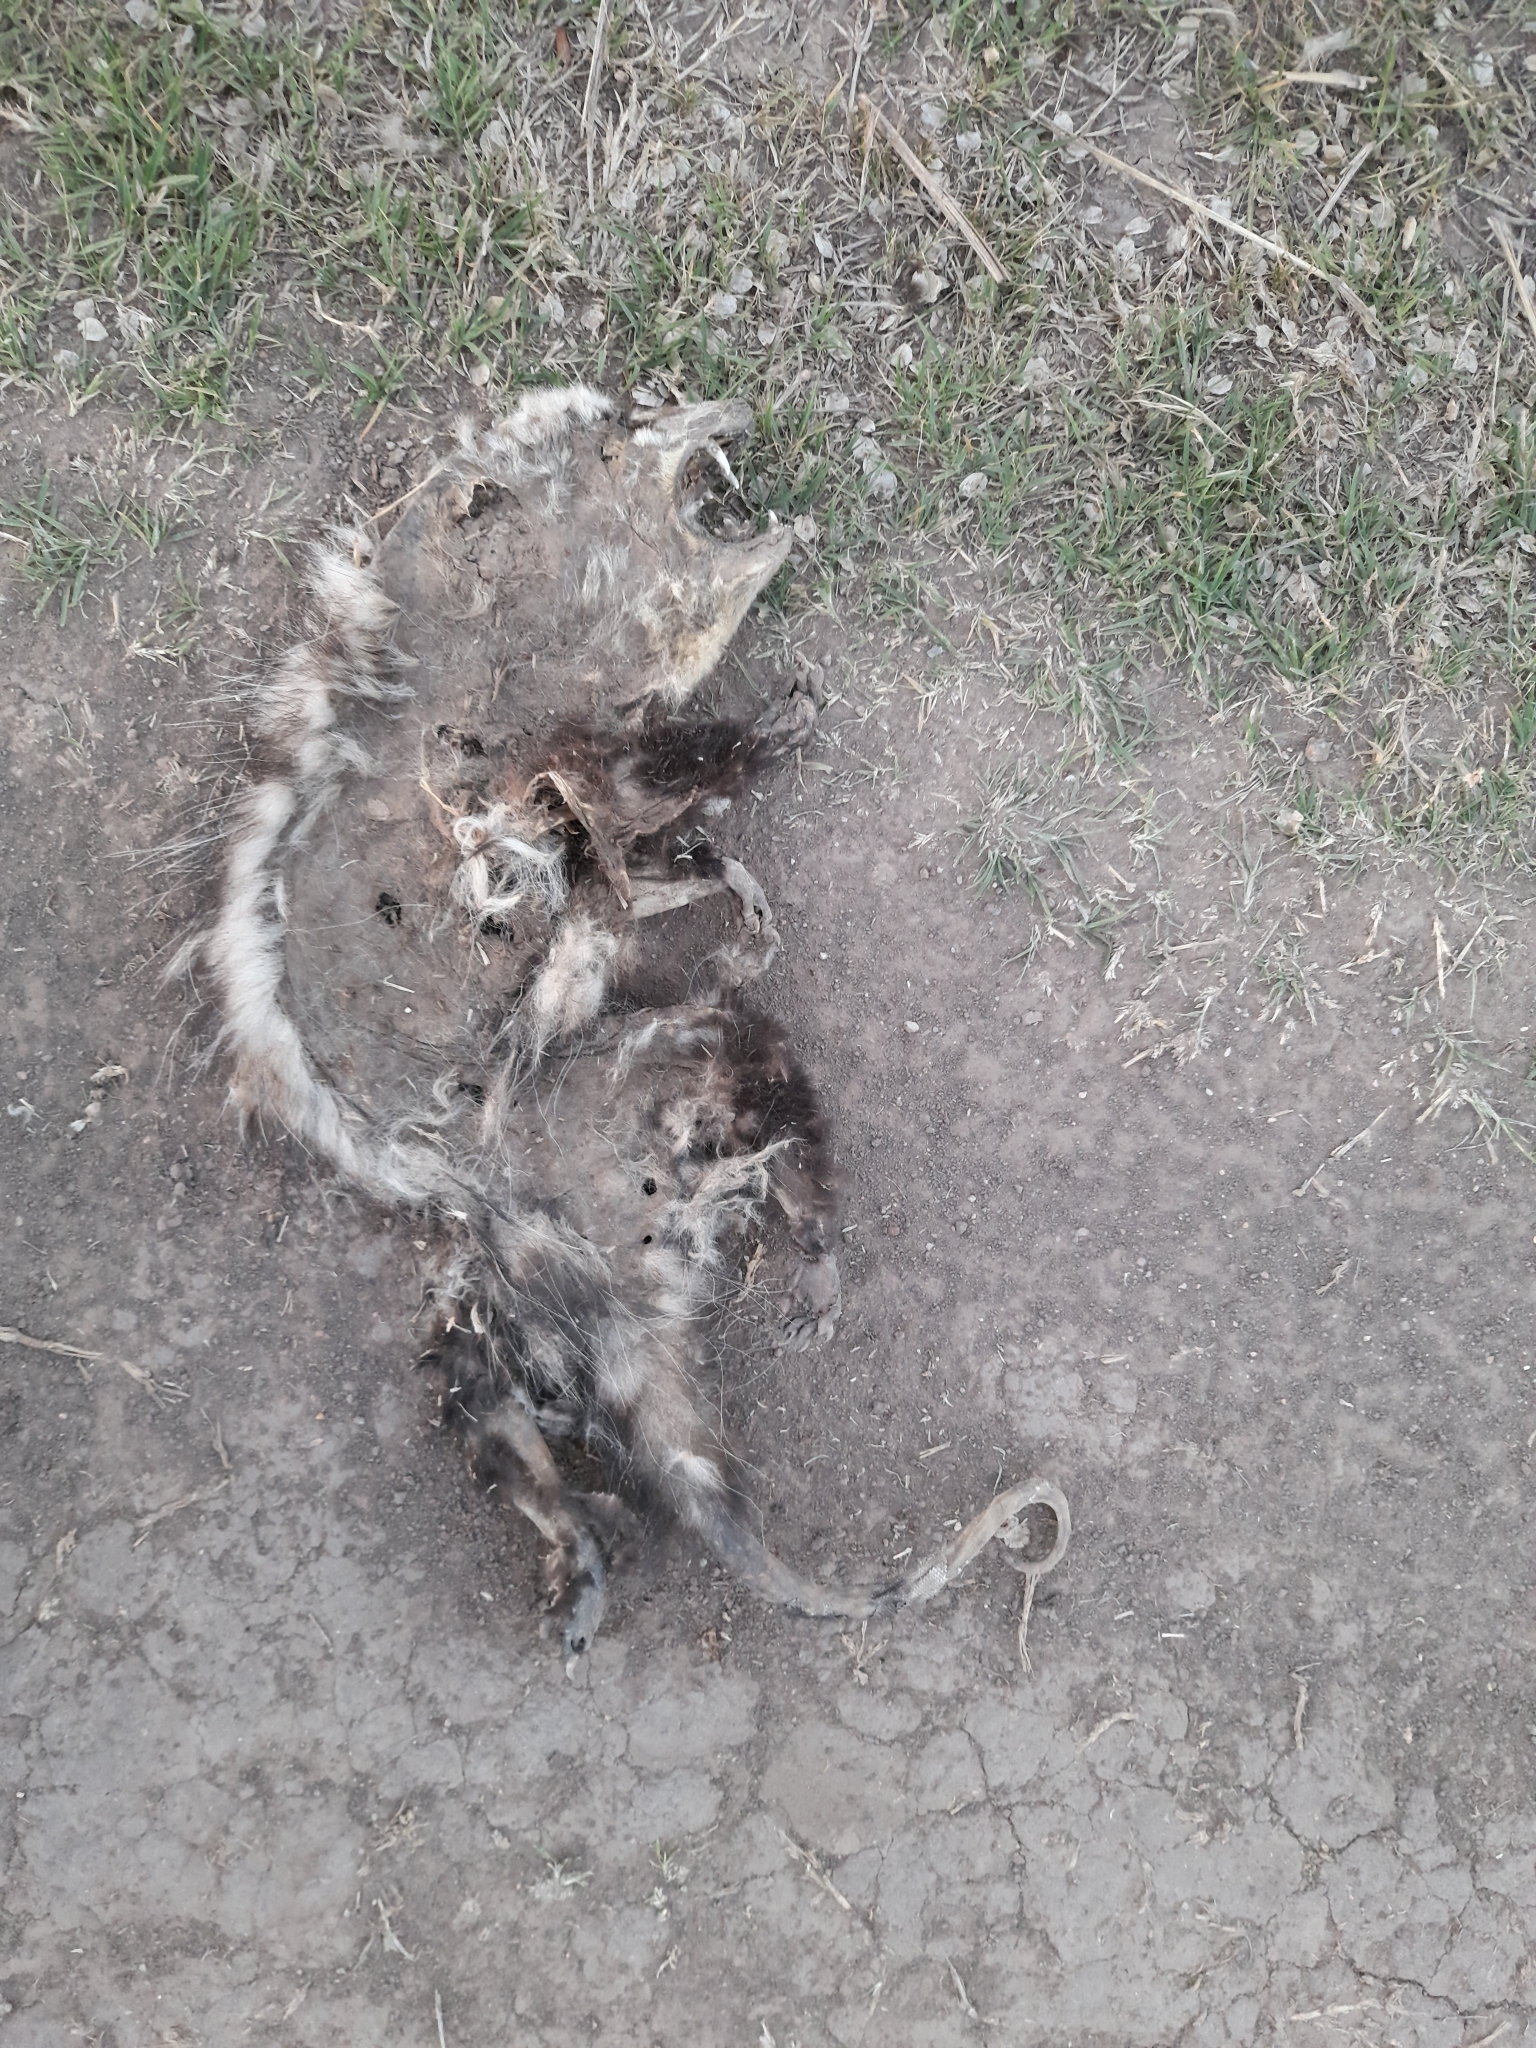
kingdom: Animalia
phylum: Chordata
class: Mammalia
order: Didelphimorphia
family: Didelphidae
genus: Didelphis
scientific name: Didelphis albiventris
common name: White-eared opossum
